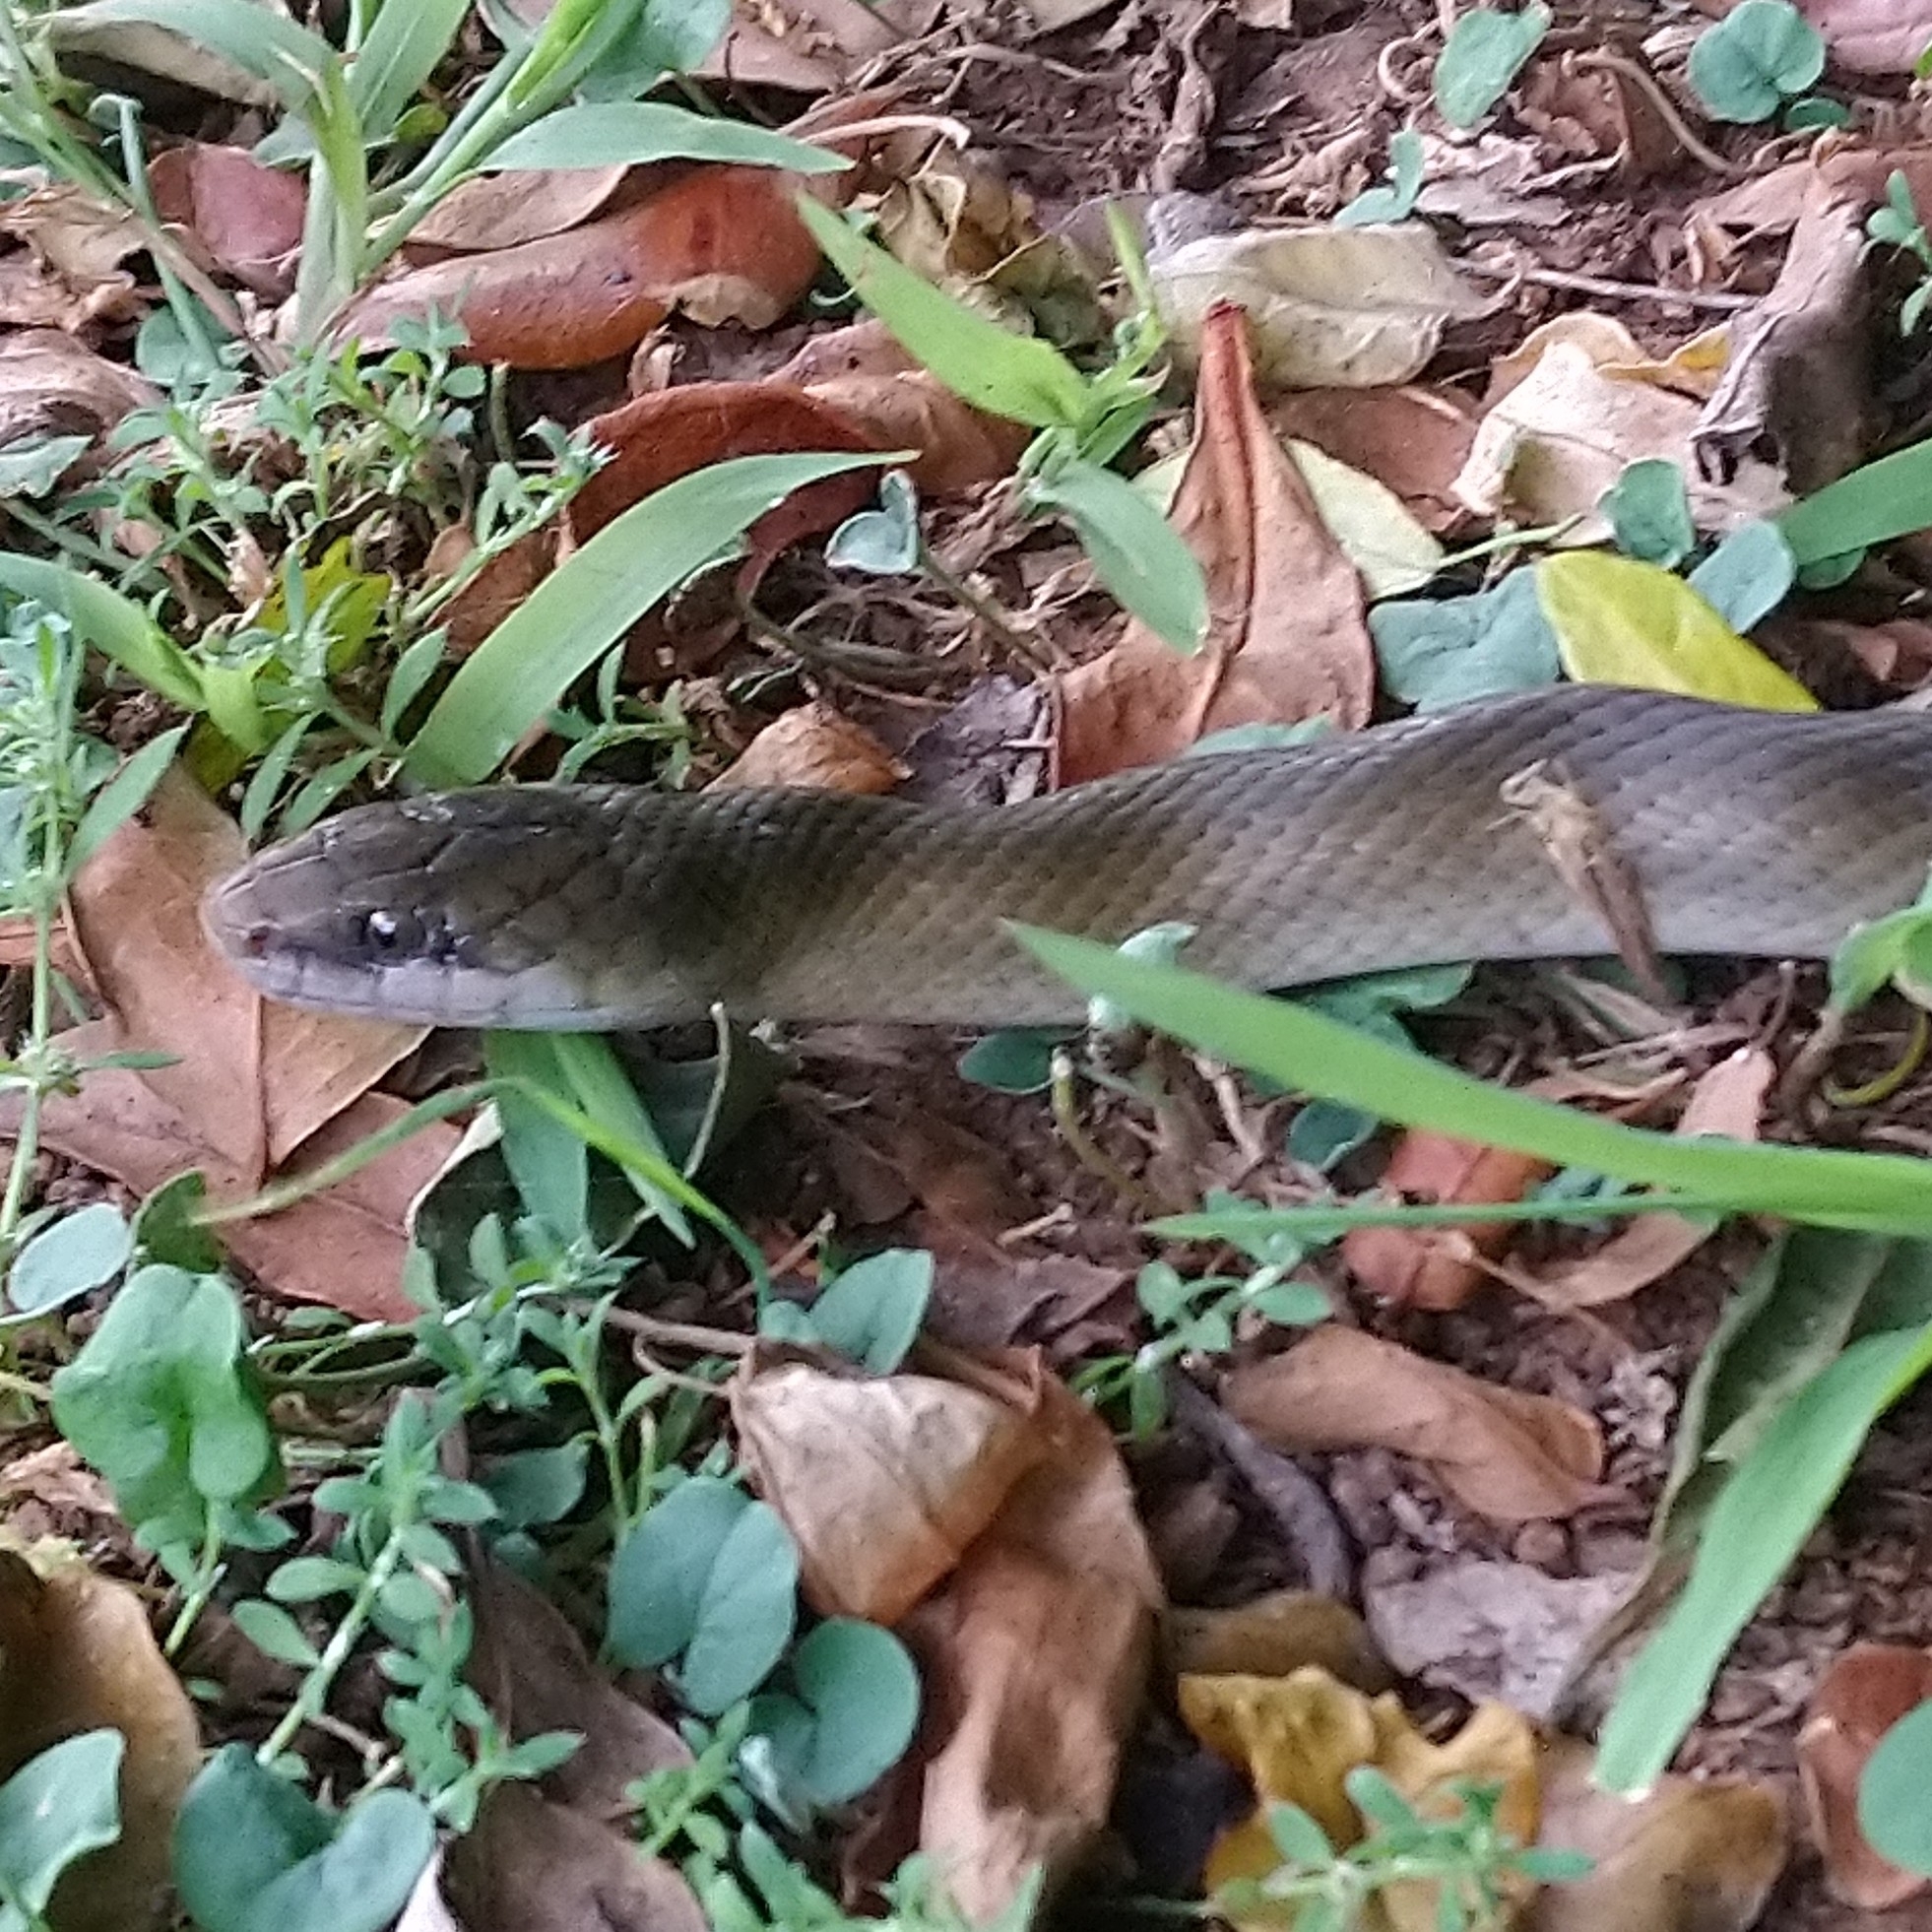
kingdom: Animalia
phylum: Chordata
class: Squamata
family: Lamprophiidae
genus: Lycodonomorphus
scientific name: Lycodonomorphus inornatus
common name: Black house snake
